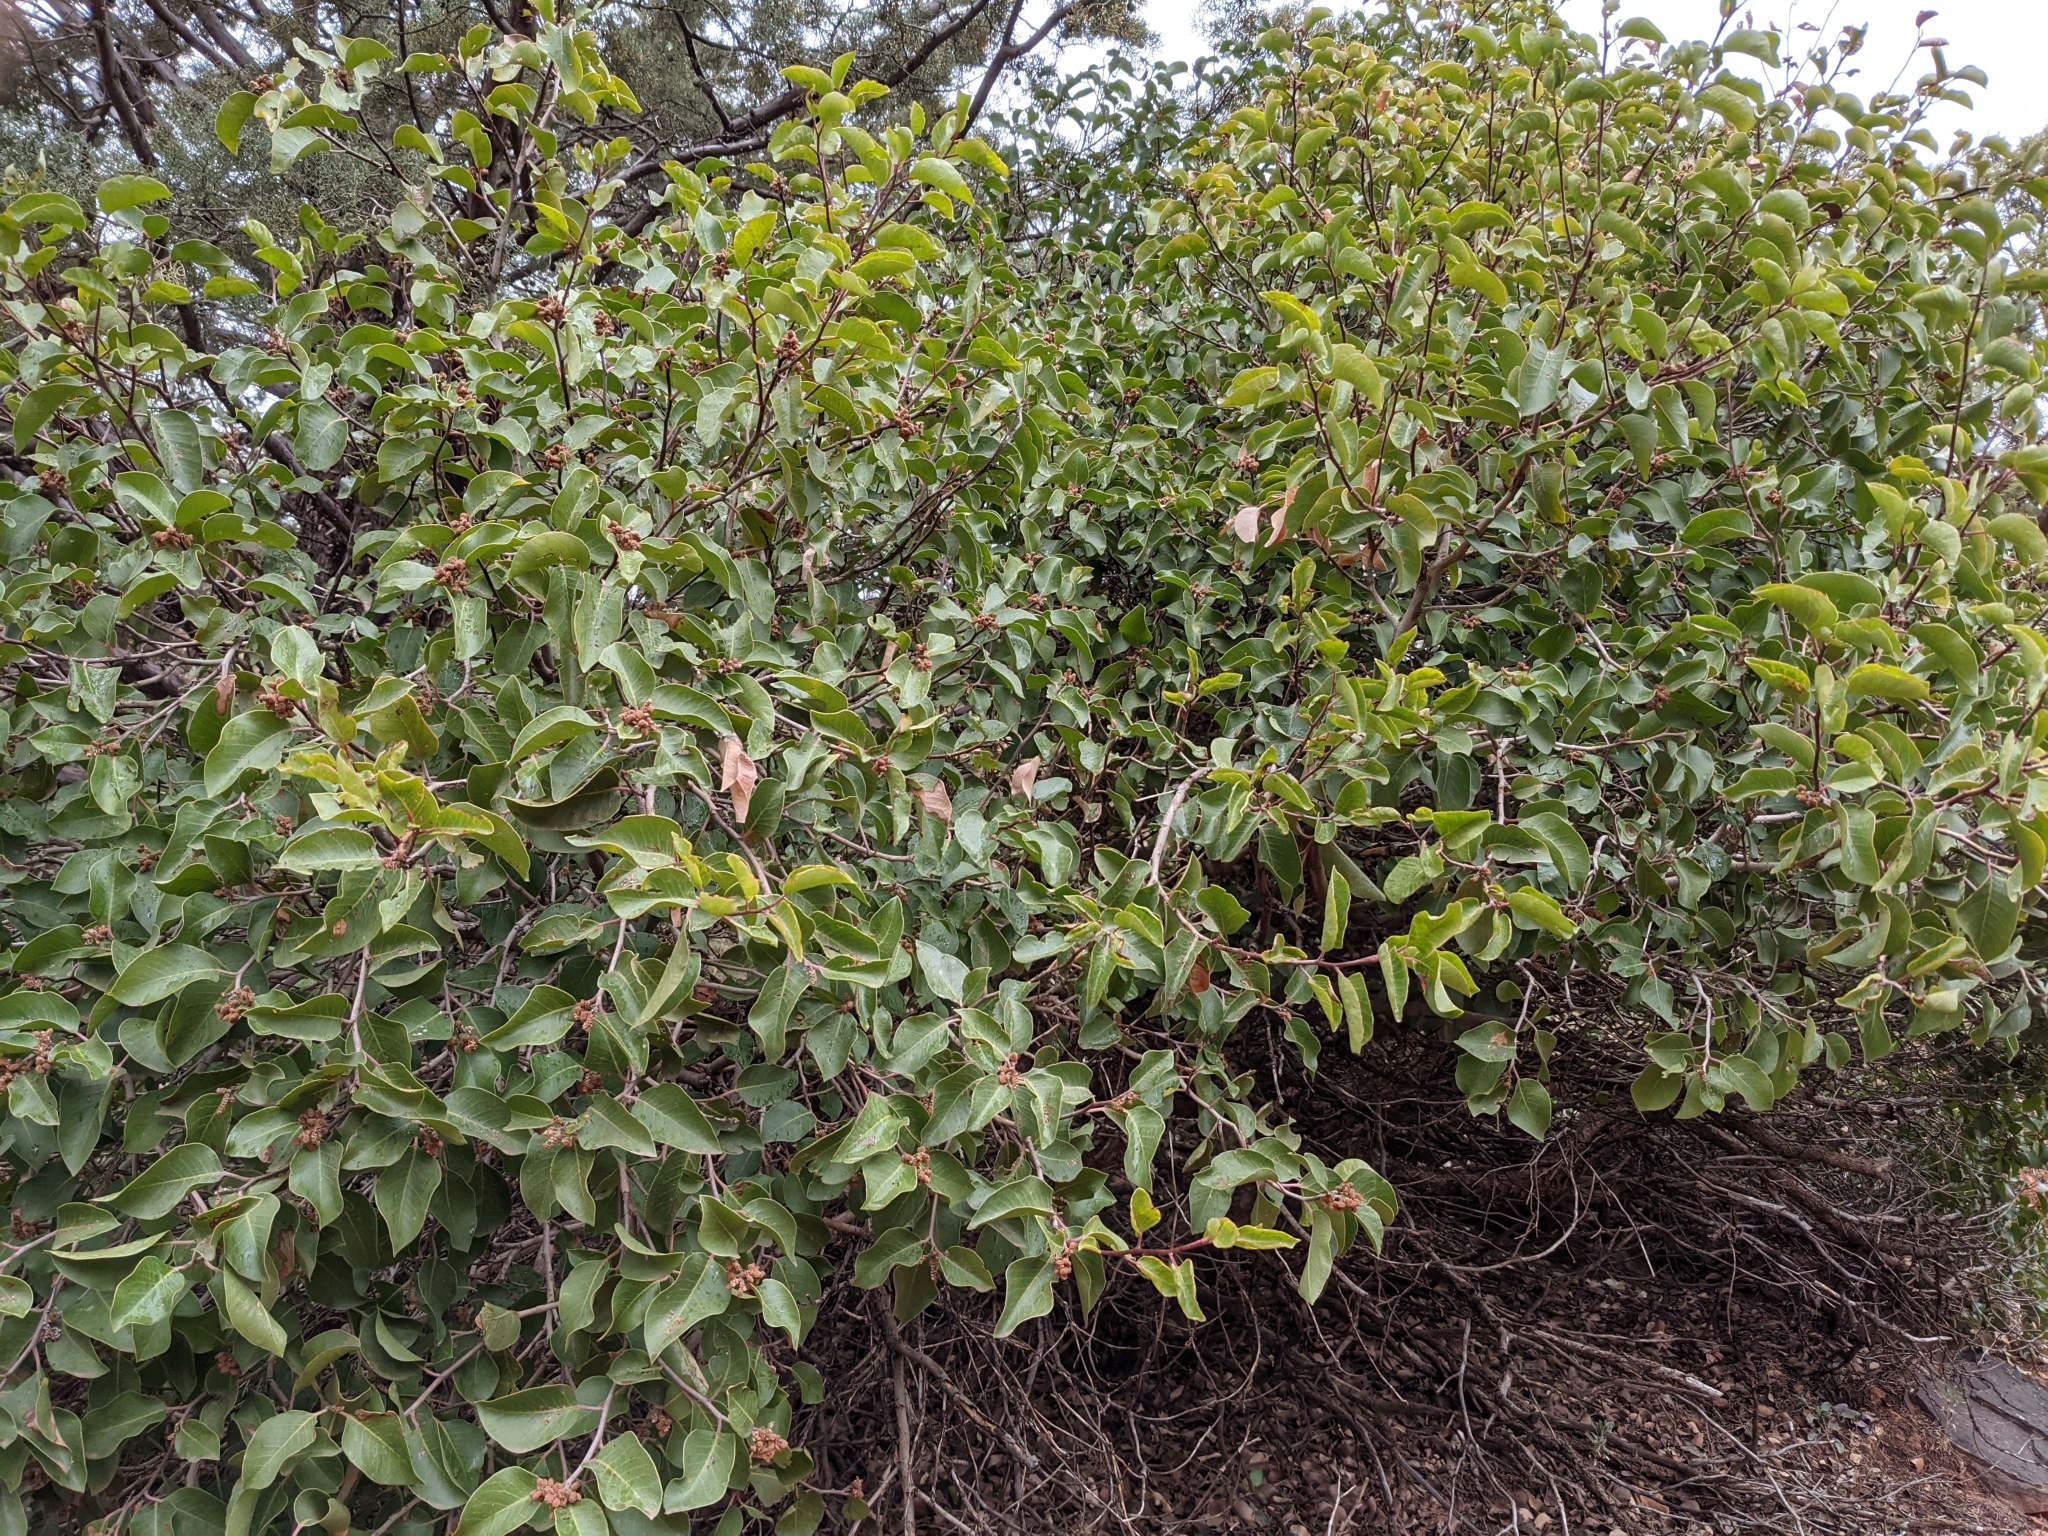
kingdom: Plantae
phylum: Tracheophyta
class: Magnoliopsida
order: Sapindales
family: Anacardiaceae
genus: Rhus
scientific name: Rhus ovata
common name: Sugar sumac
